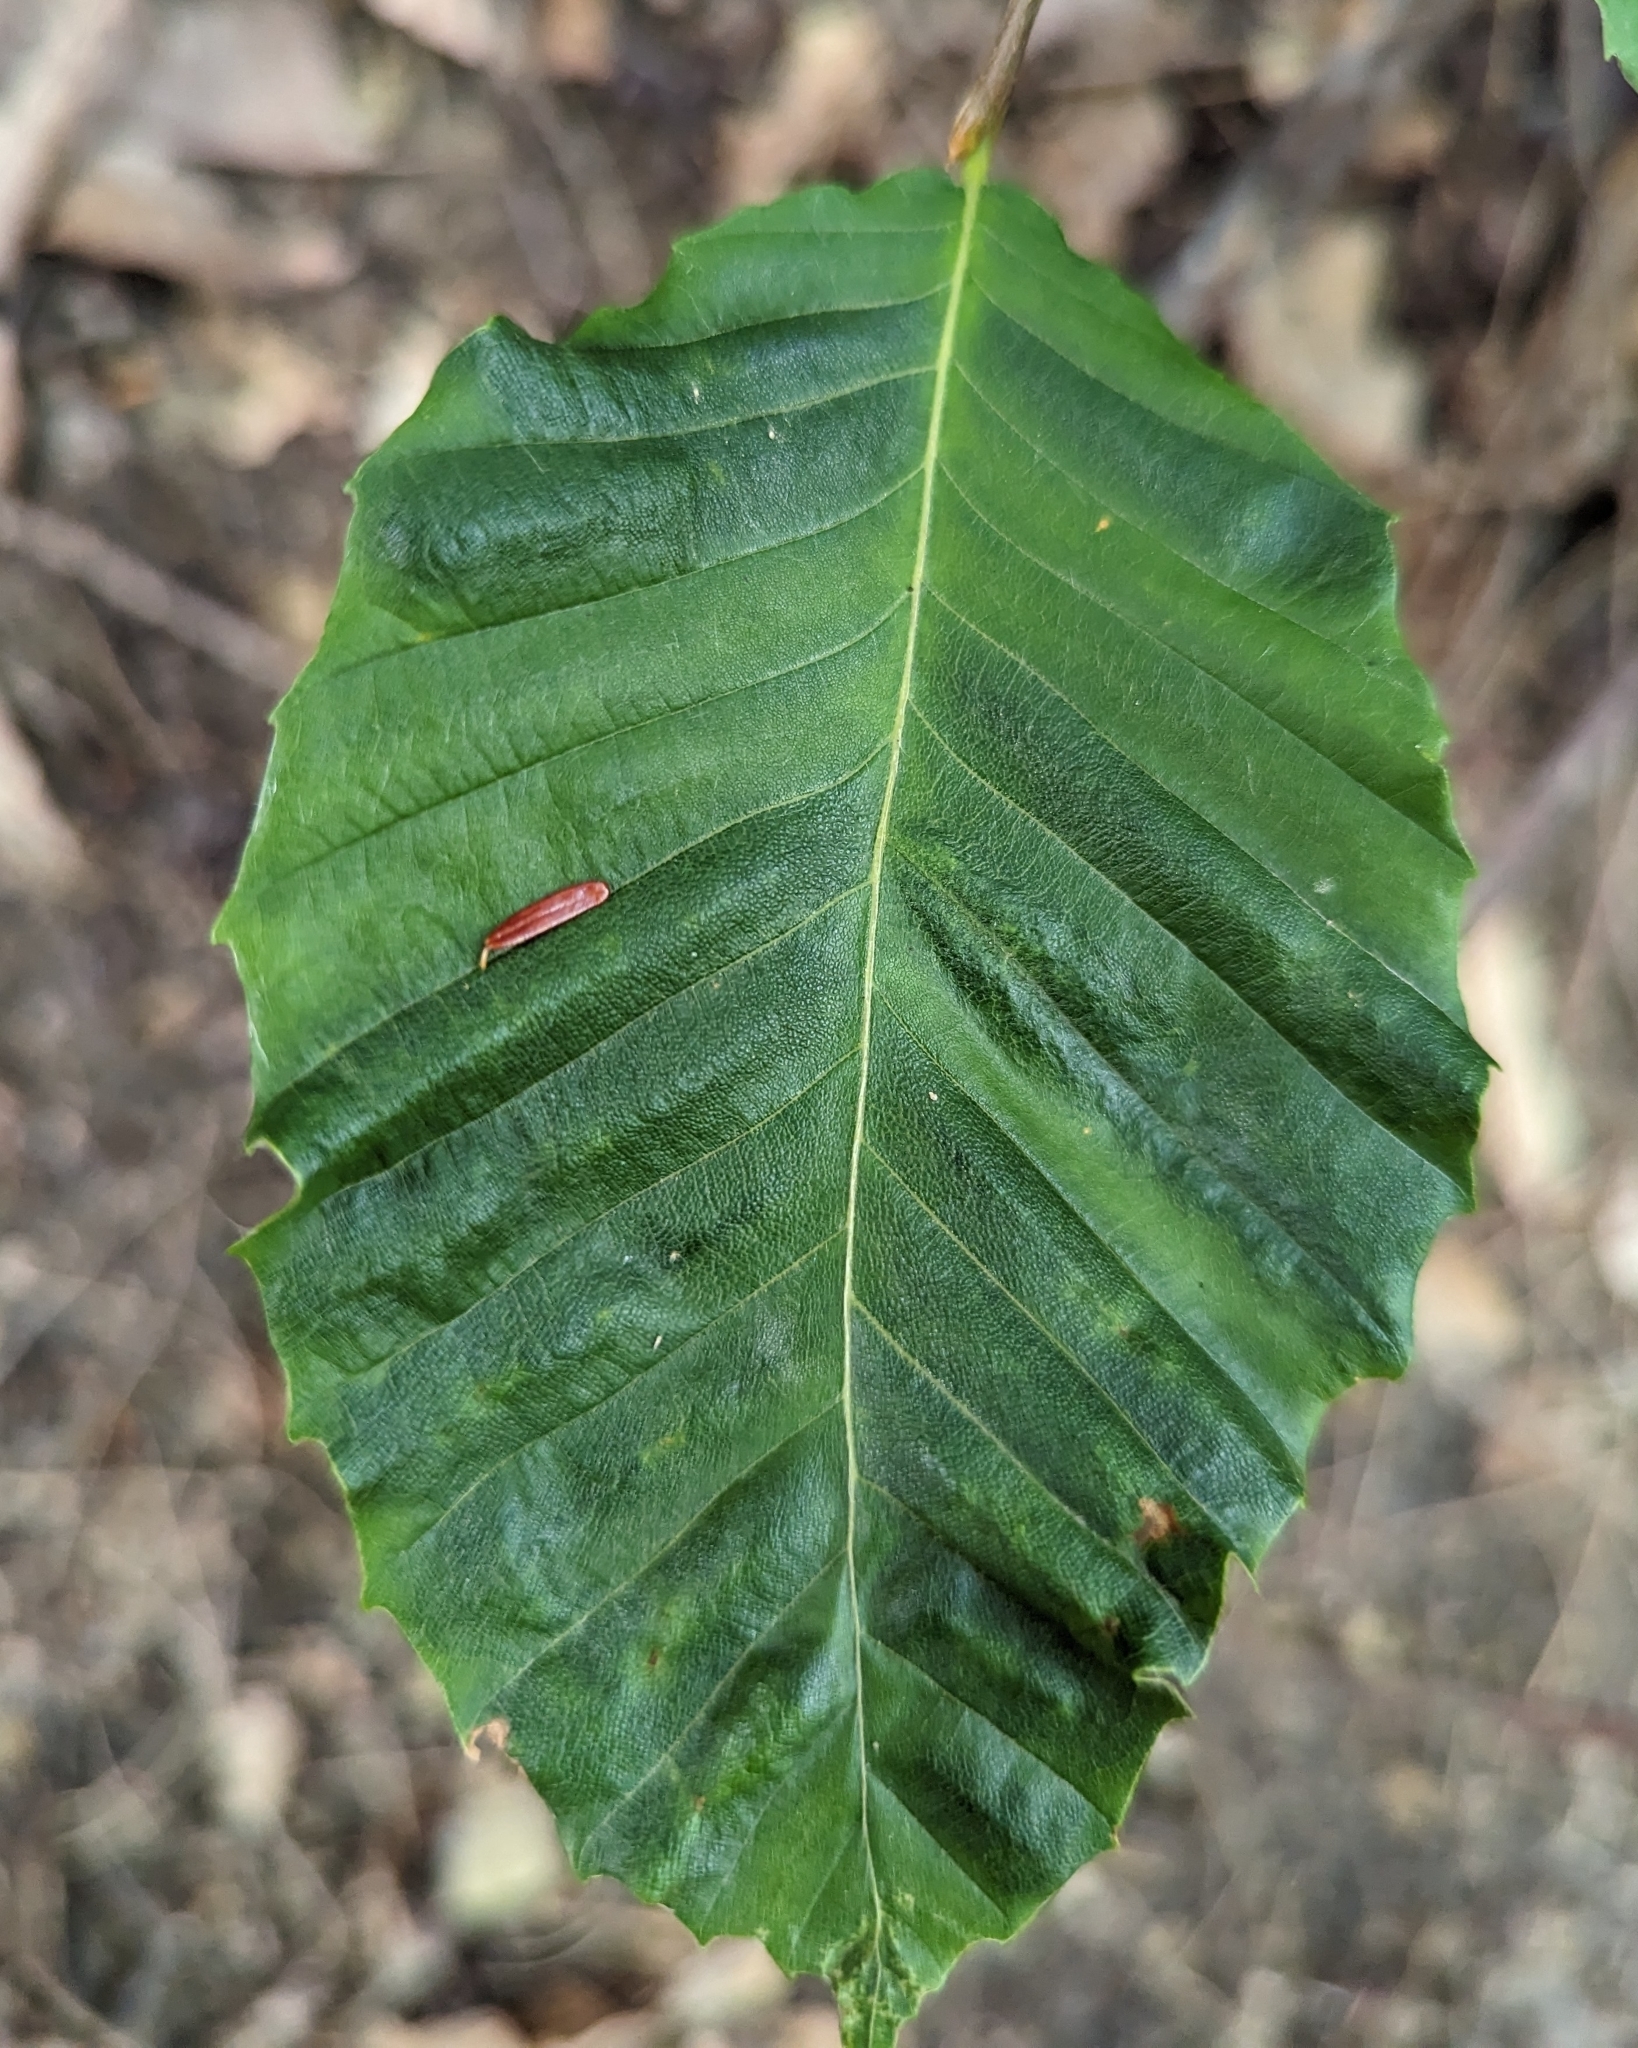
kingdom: Plantae
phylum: Tracheophyta
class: Magnoliopsida
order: Fagales
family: Fagaceae
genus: Fagus
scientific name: Fagus grandifolia
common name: American beech
